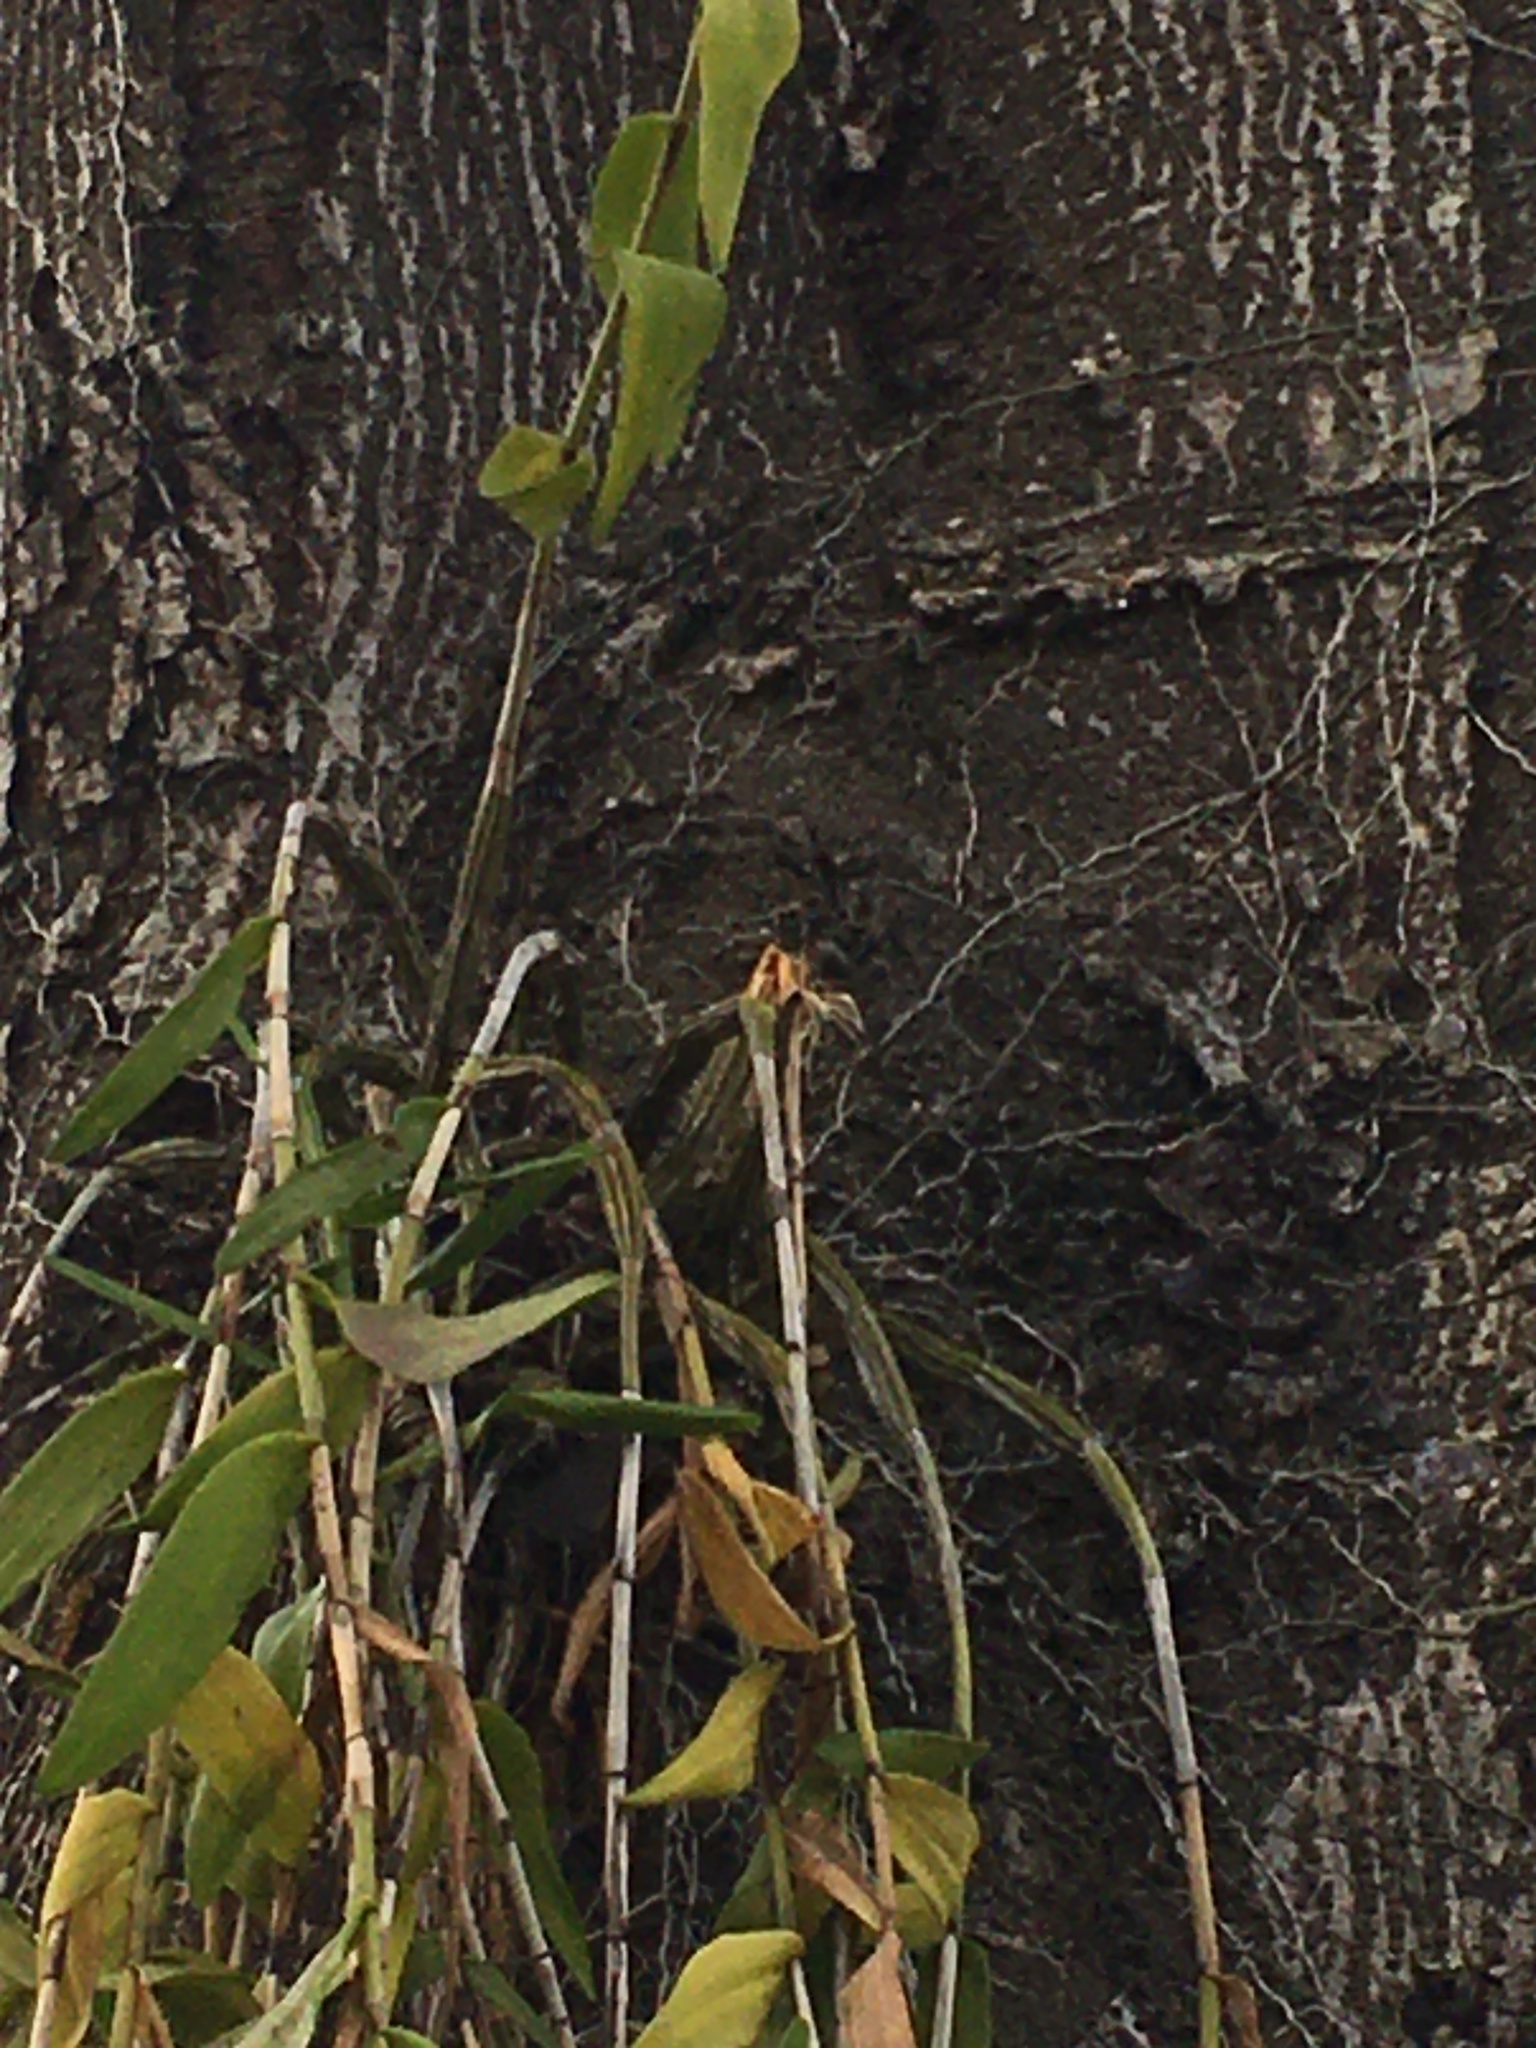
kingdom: Plantae
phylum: Tracheophyta
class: Liliopsida
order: Asparagales
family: Orchidaceae
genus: Dendrobium
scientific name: Dendrobium crumenatum
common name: Orchid
